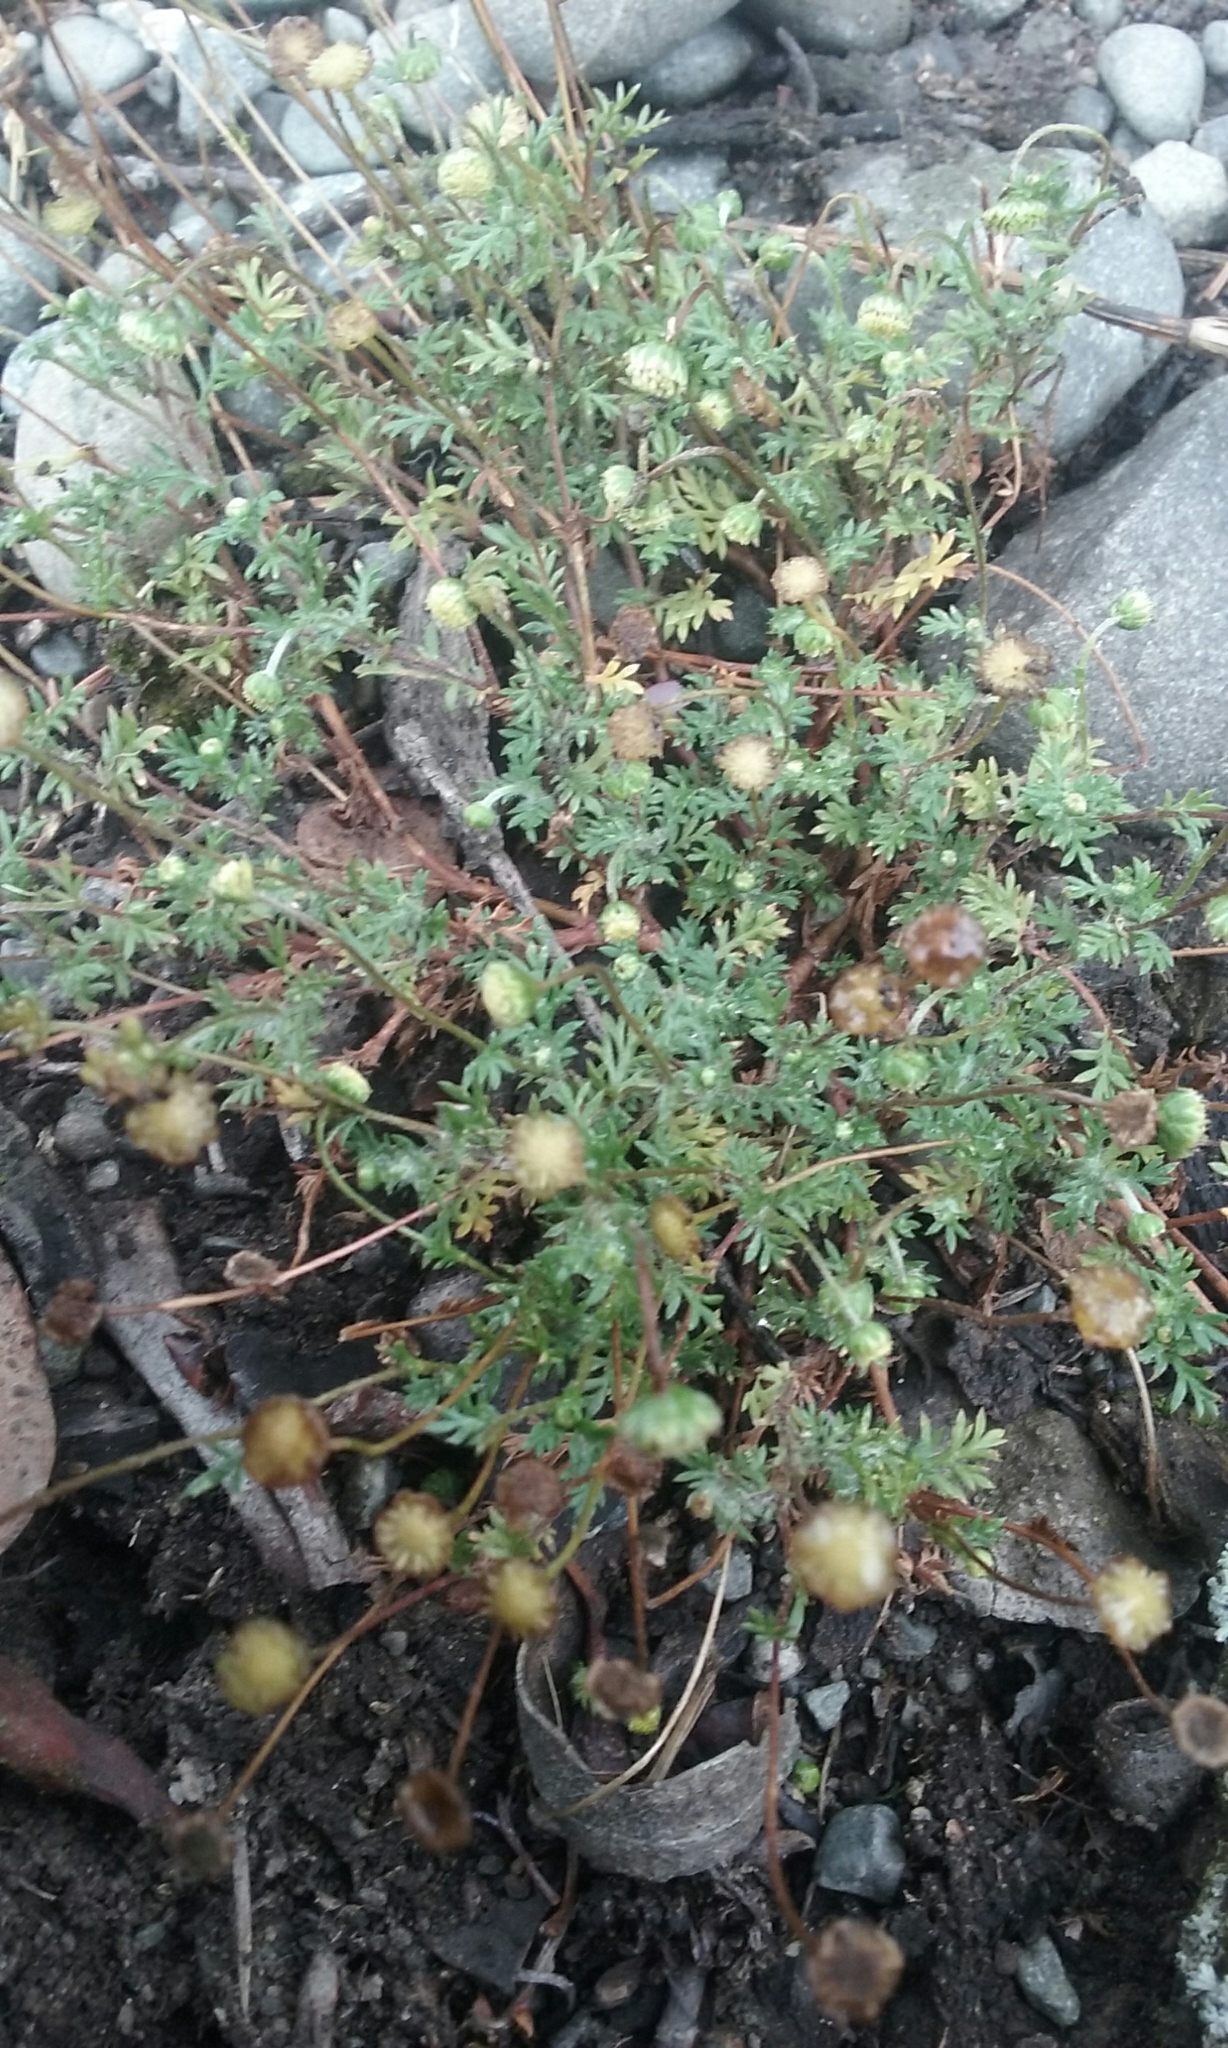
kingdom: Plantae
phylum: Tracheophyta
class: Magnoliopsida
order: Asterales
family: Asteraceae
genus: Cotula
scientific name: Cotula australis
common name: Australian waterbuttons
